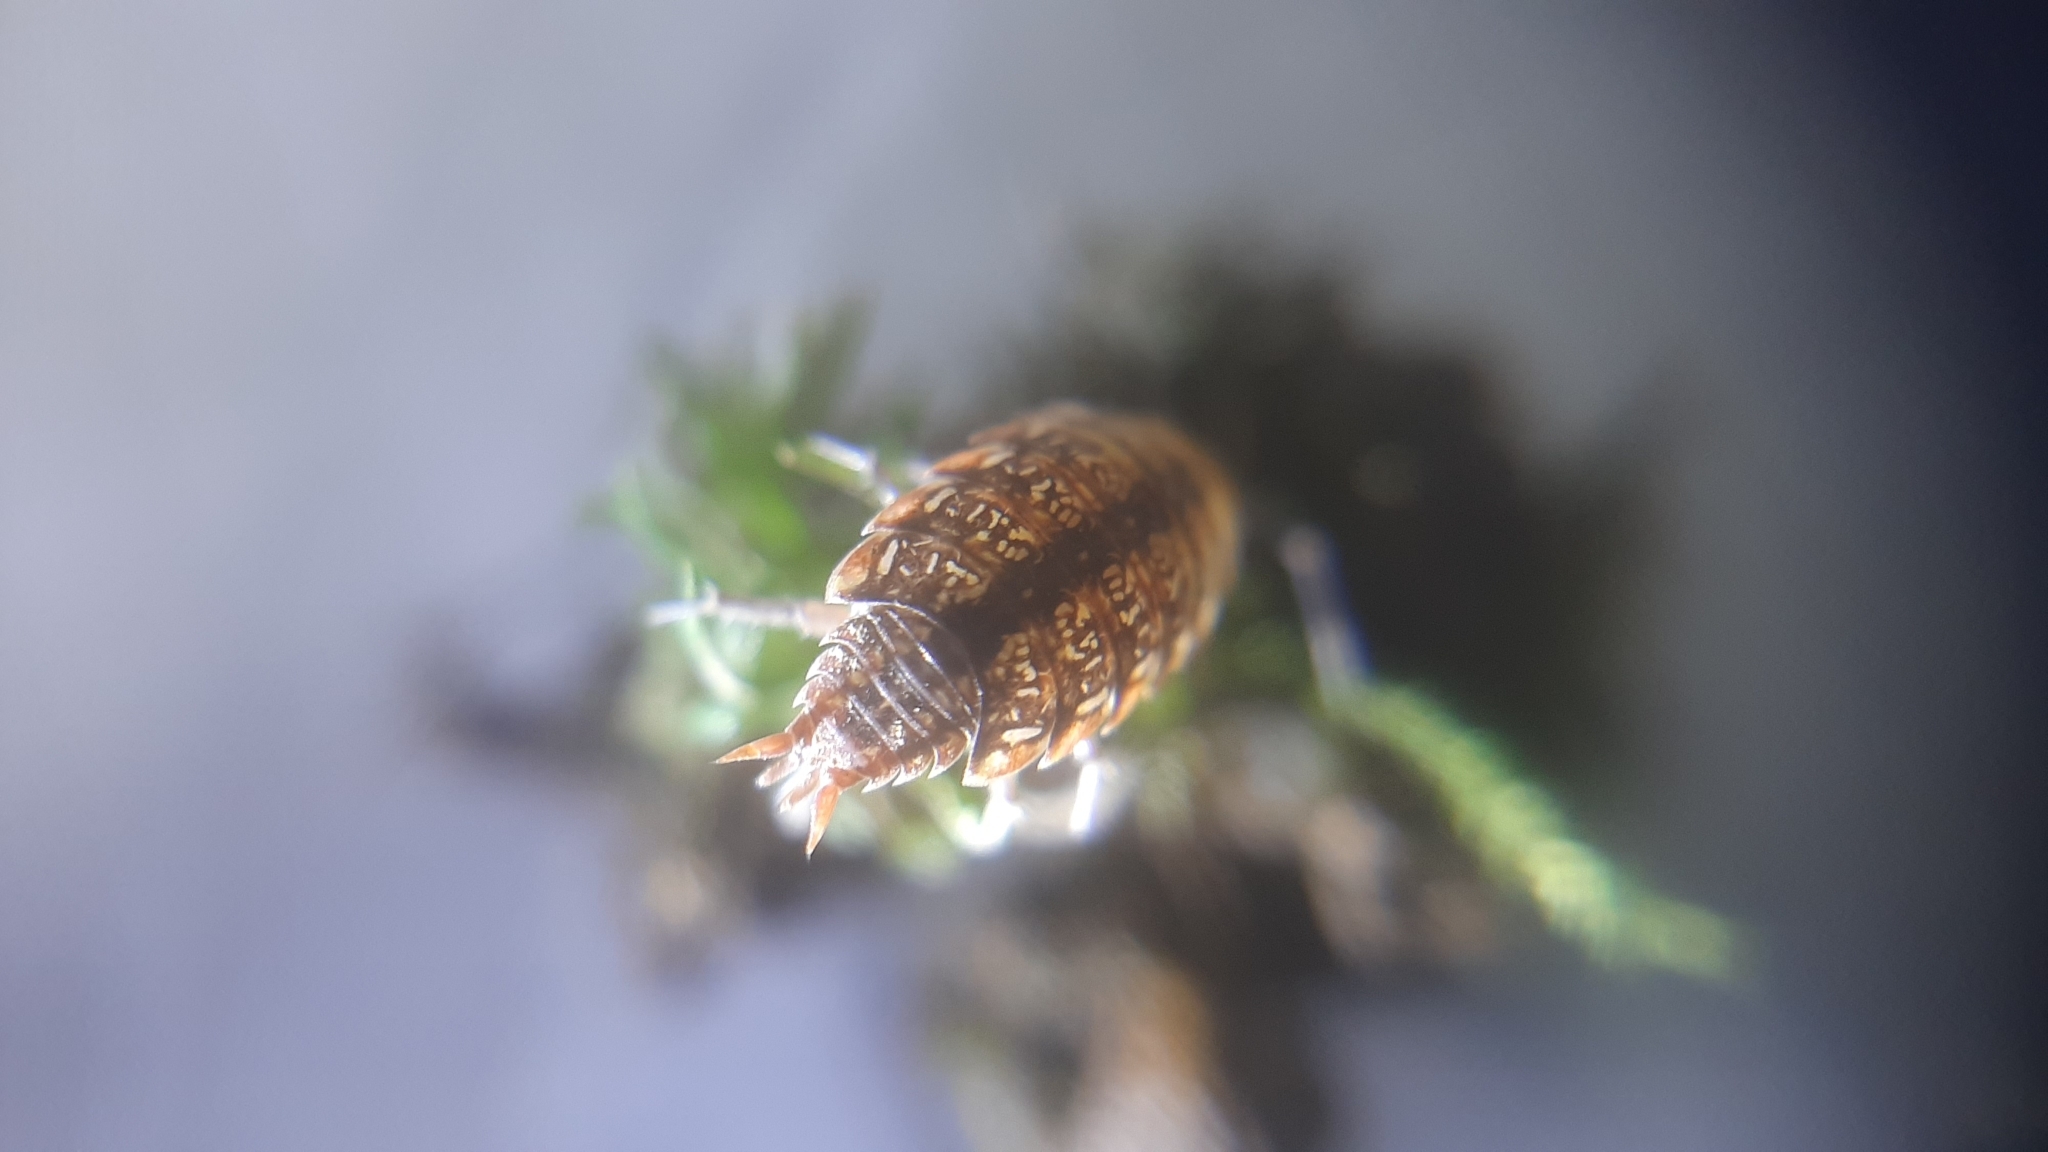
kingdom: Animalia
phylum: Arthropoda
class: Malacostraca
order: Isopoda
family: Philosciidae
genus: Philoscia
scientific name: Philoscia affinis
